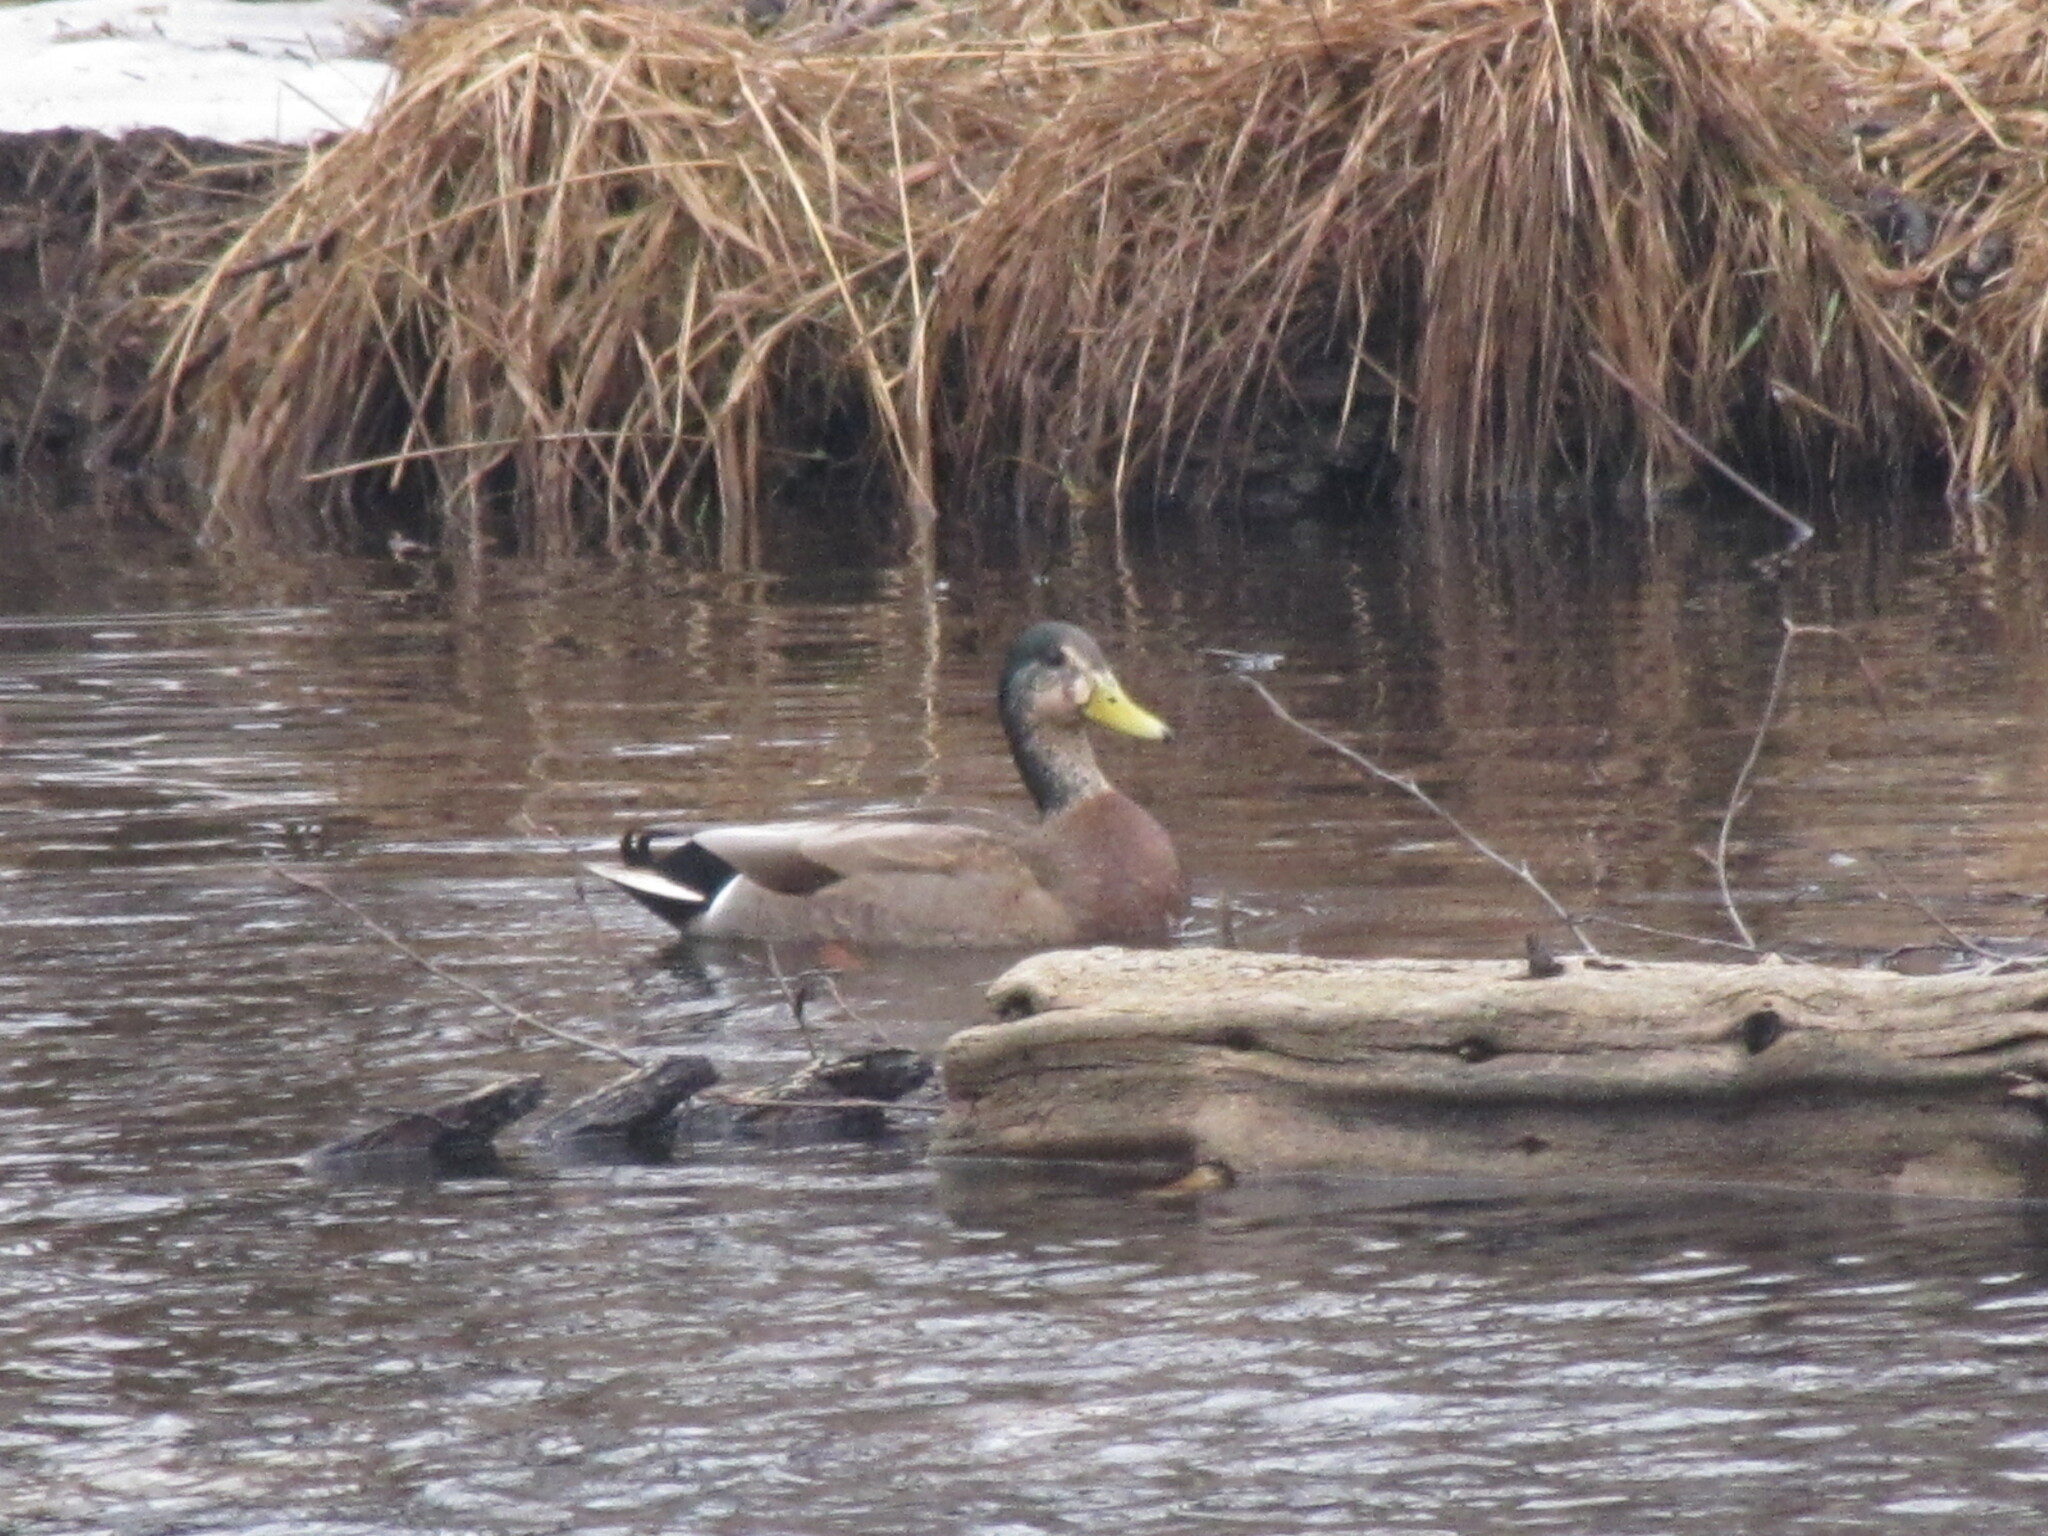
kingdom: Animalia
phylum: Chordata
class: Aves
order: Anseriformes
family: Anatidae
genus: Anas
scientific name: Anas platyrhynchos
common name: Mallard
